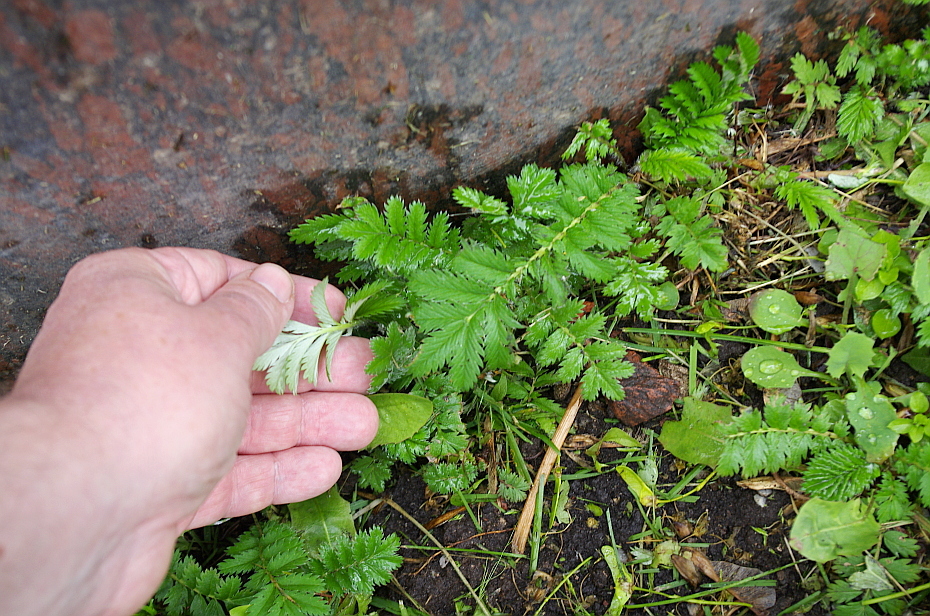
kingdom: Plantae
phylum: Tracheophyta
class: Magnoliopsida
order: Rosales
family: Rosaceae
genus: Argentina
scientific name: Argentina anserina
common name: Common silverweed
